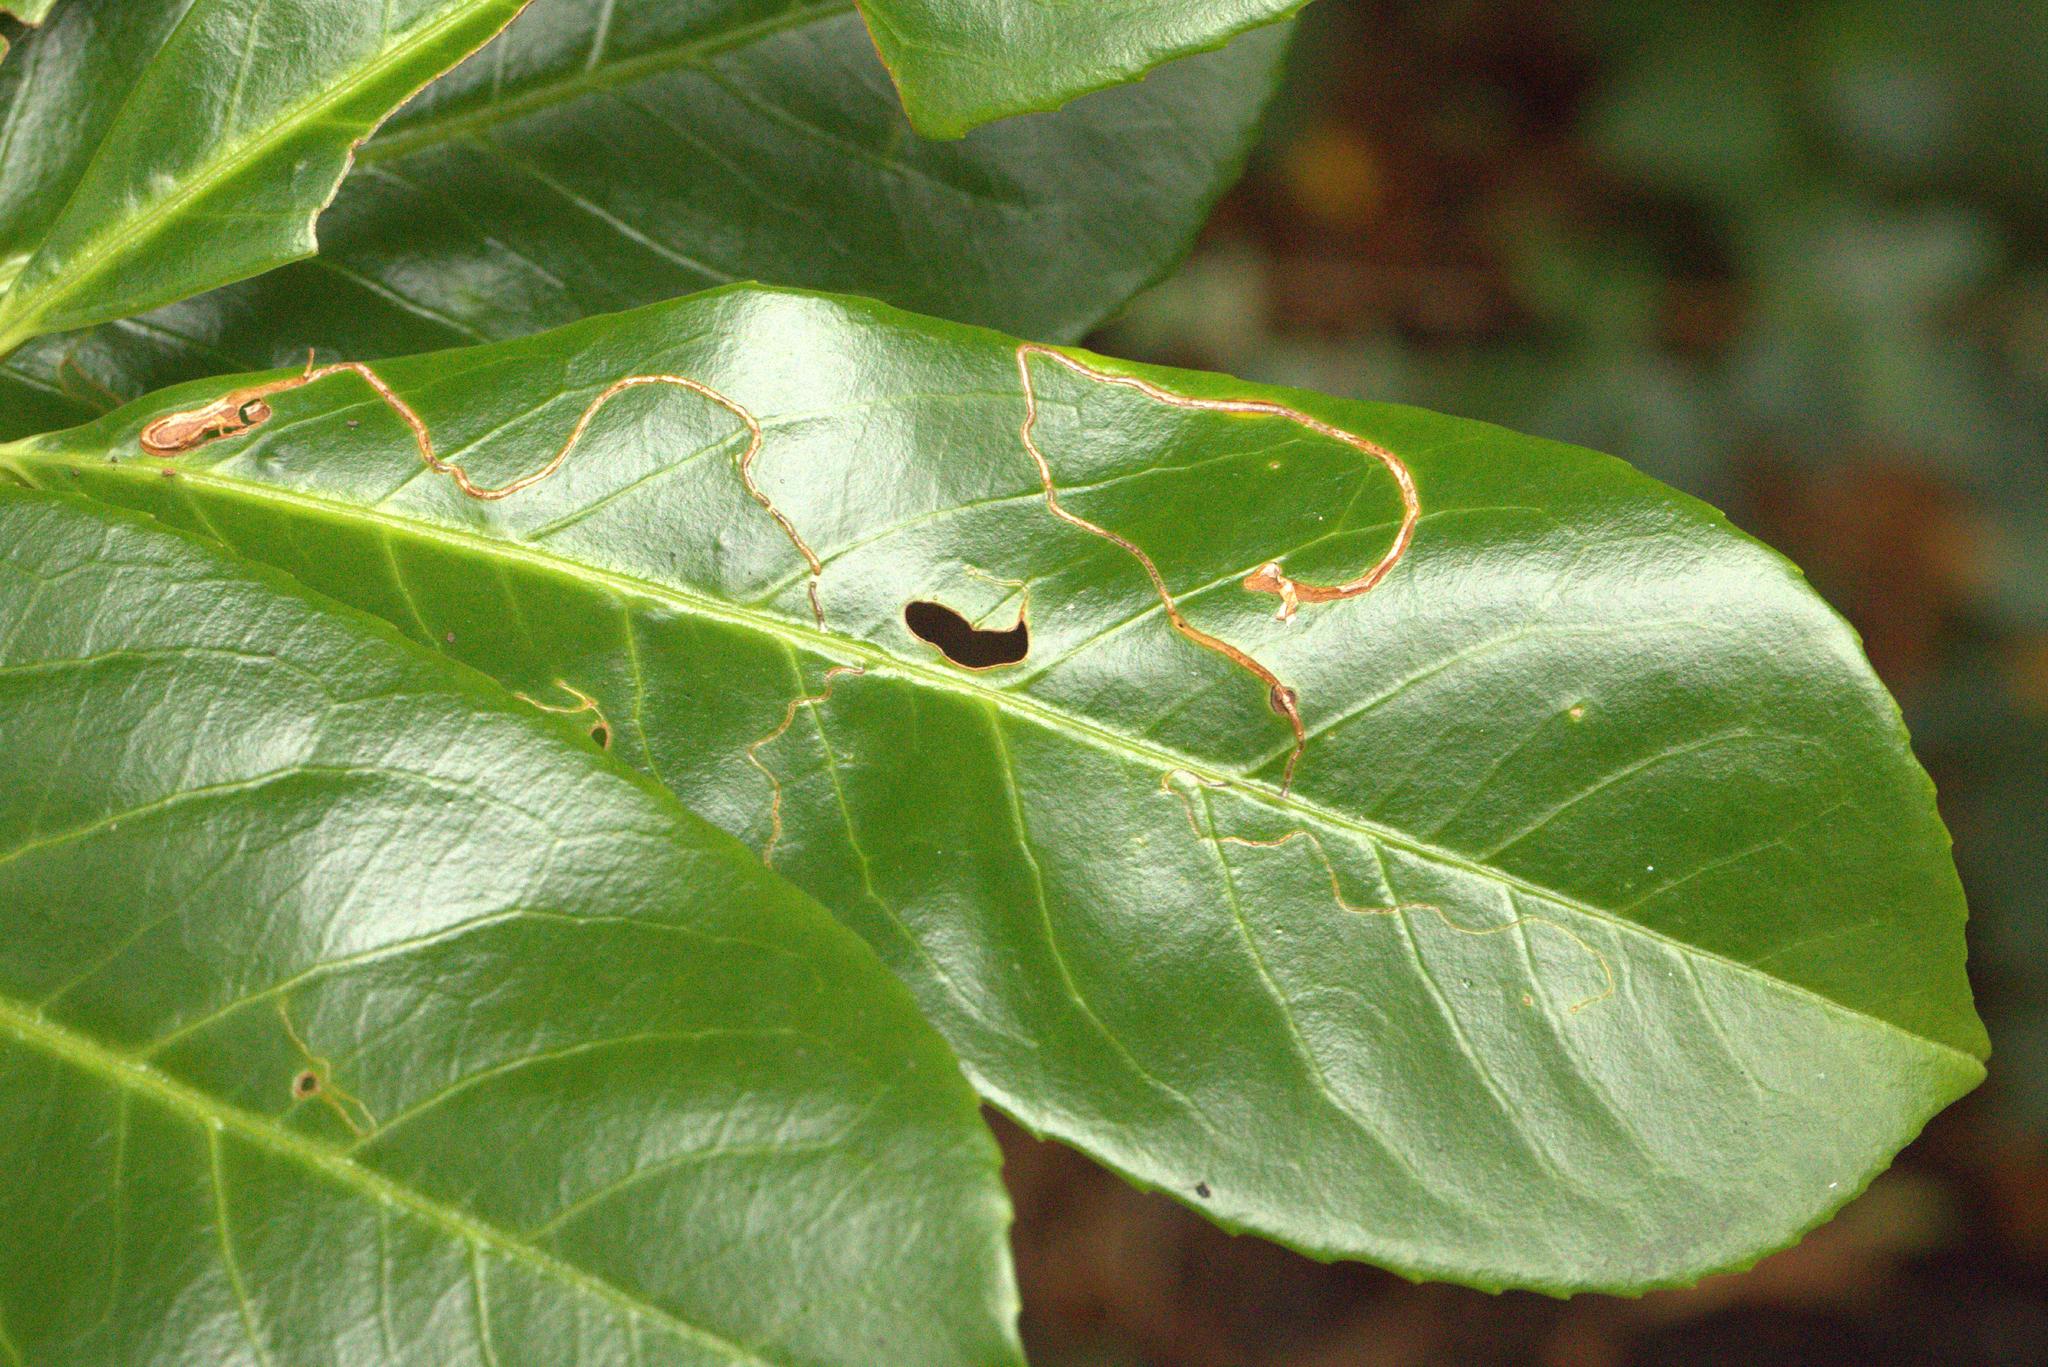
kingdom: Animalia
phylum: Arthropoda
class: Insecta
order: Lepidoptera
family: Lyonetiidae
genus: Lyonetia
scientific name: Lyonetia clerkella
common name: Apple leaf miner
